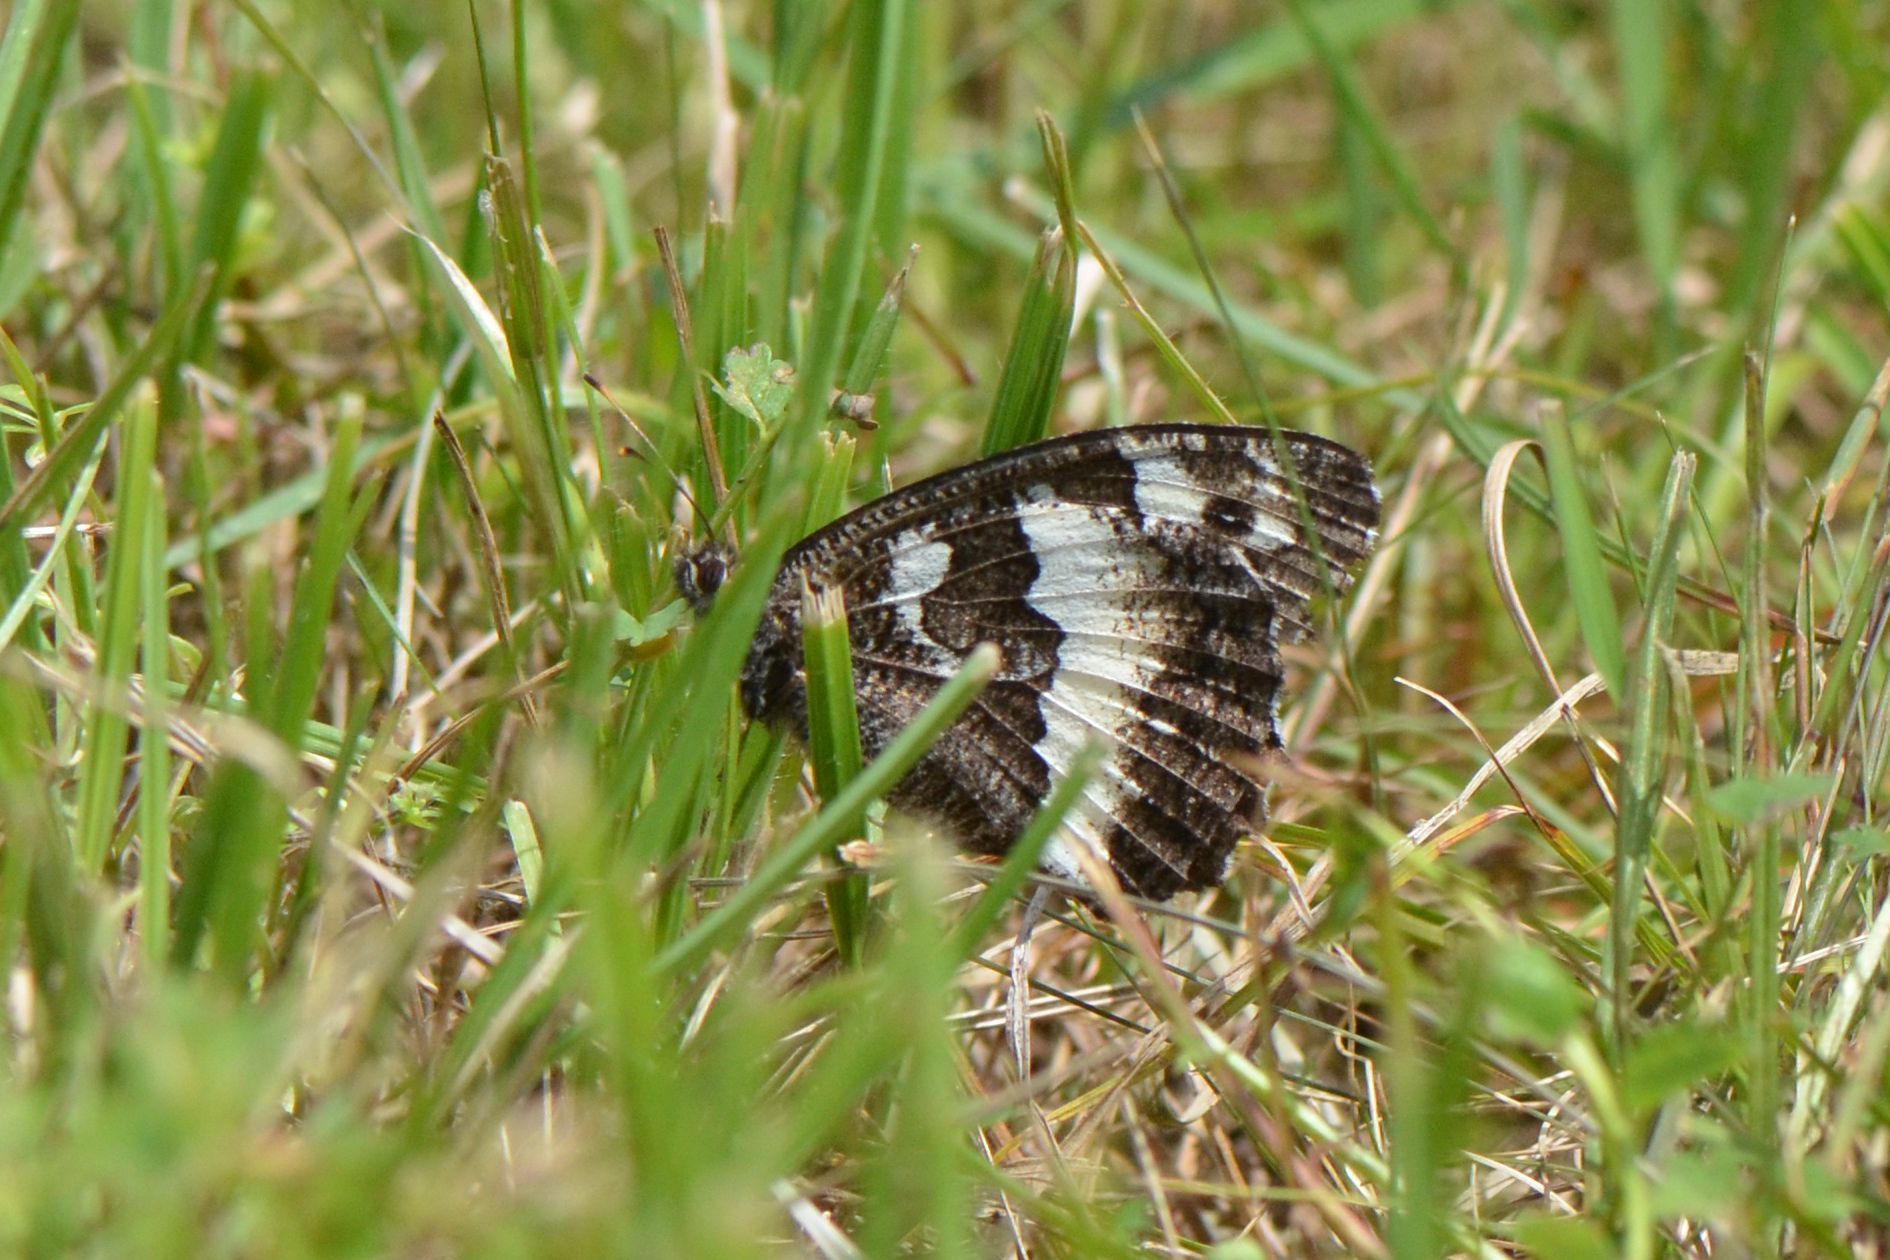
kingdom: Animalia
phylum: Arthropoda
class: Insecta
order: Lepidoptera
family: Lycaenidae
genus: Loweia
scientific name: Loweia tityrus
